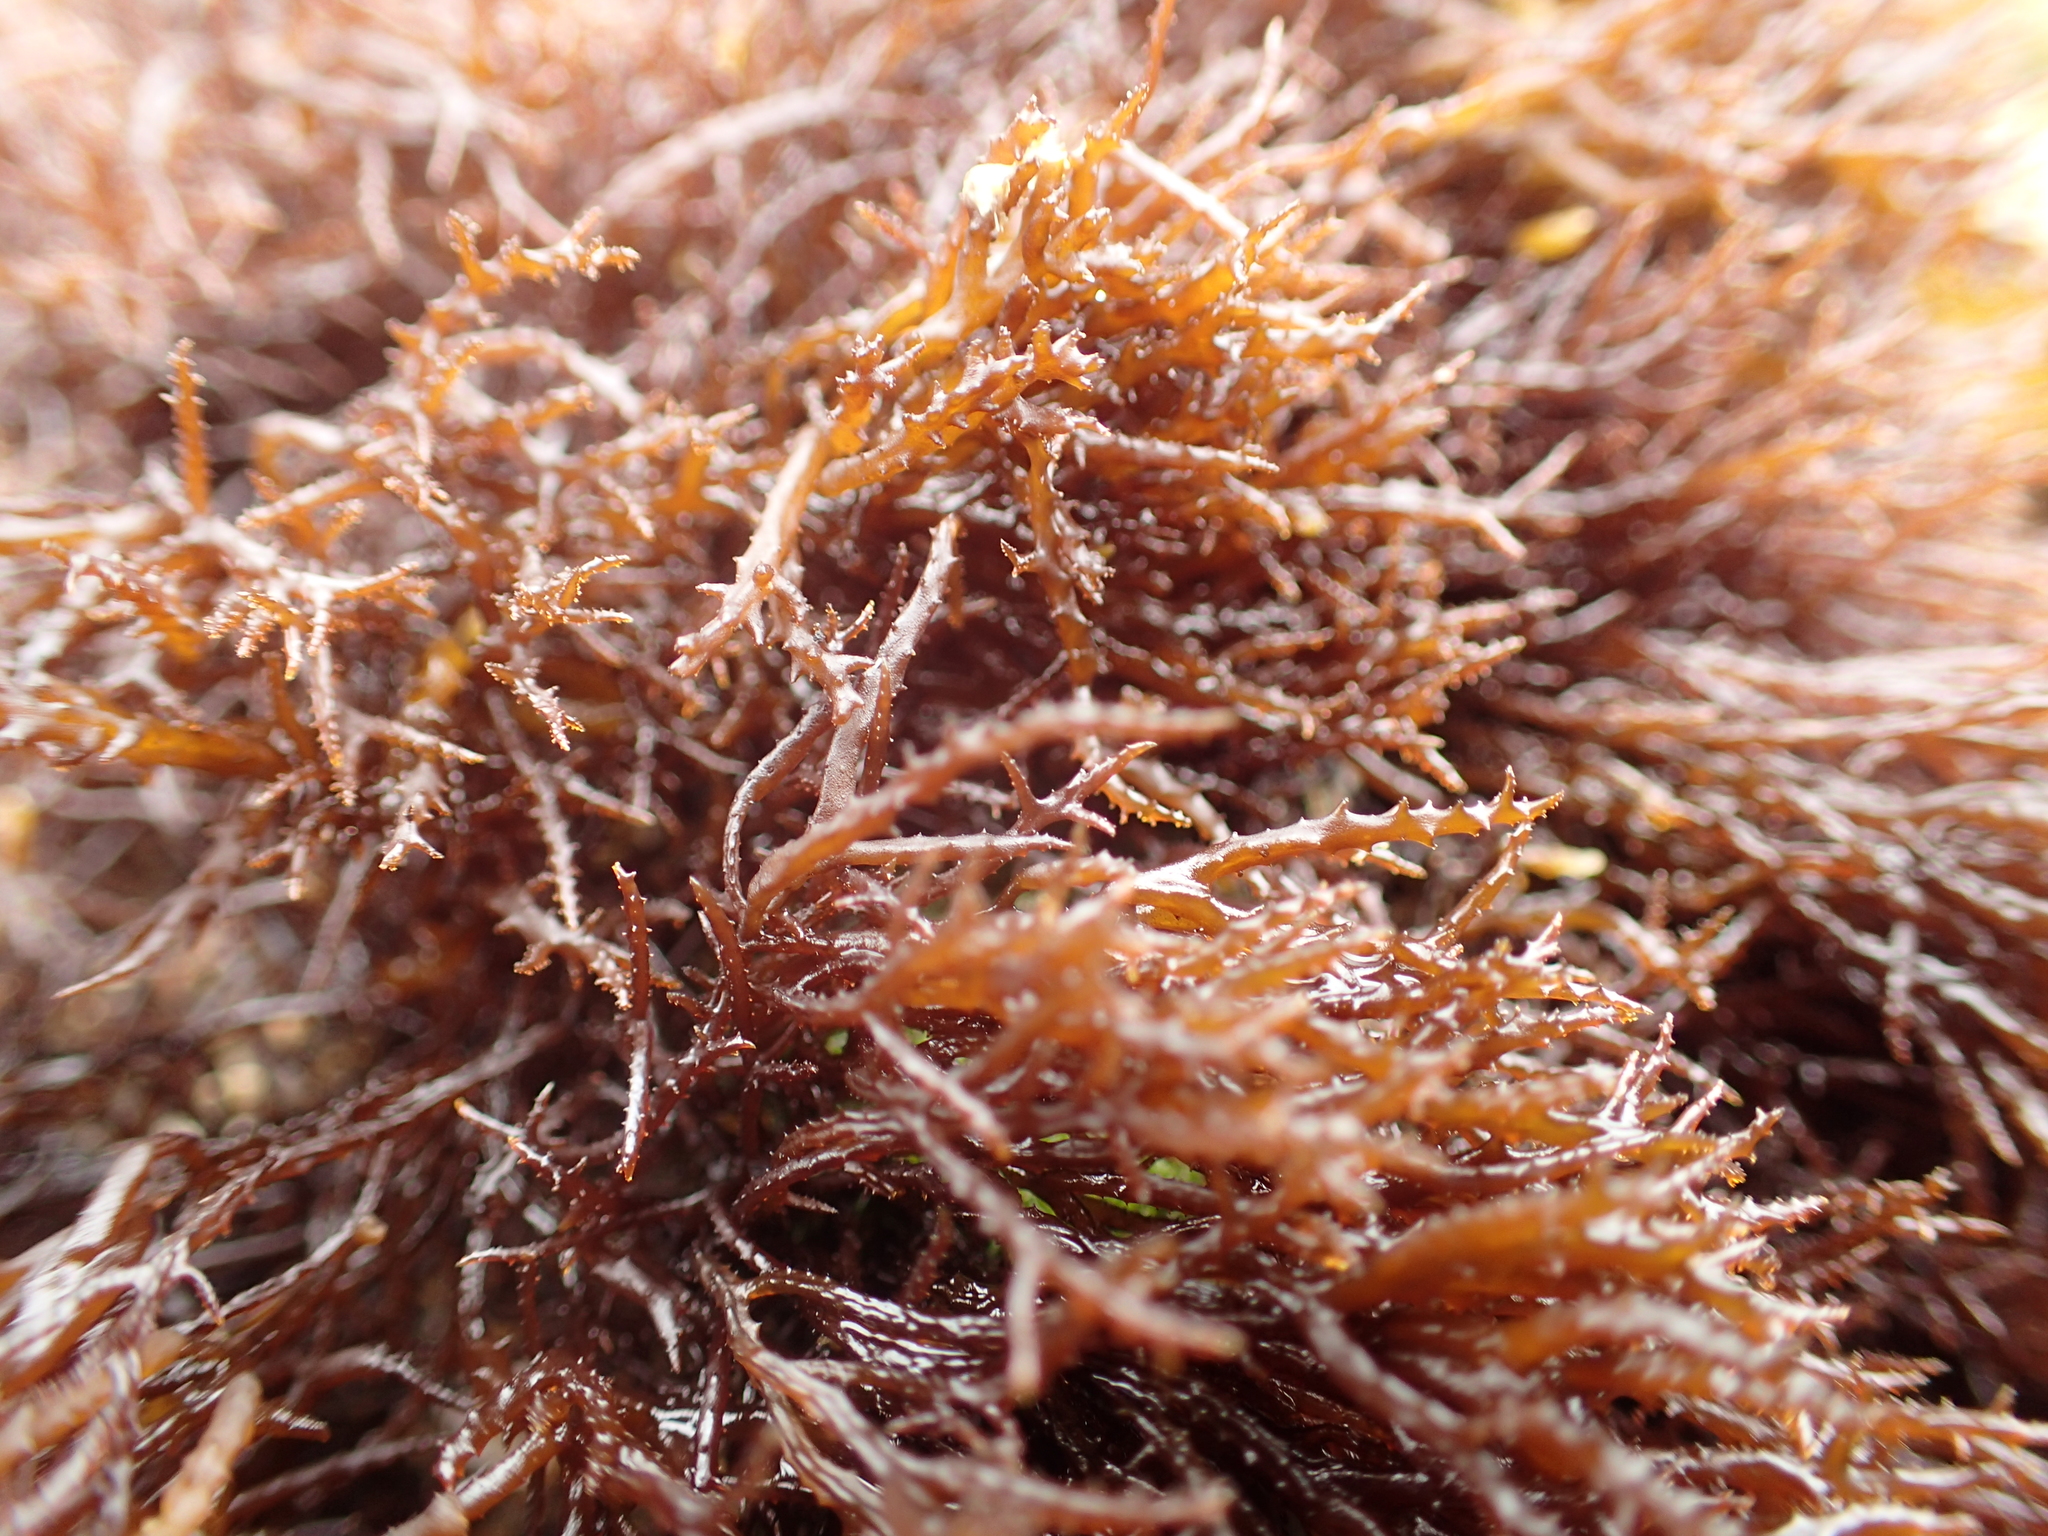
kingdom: Plantae
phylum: Rhodophyta
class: Florideophyceae
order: Gigartinales
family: Endocladiaceae
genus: Endocladia
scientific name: Endocladia muricata
